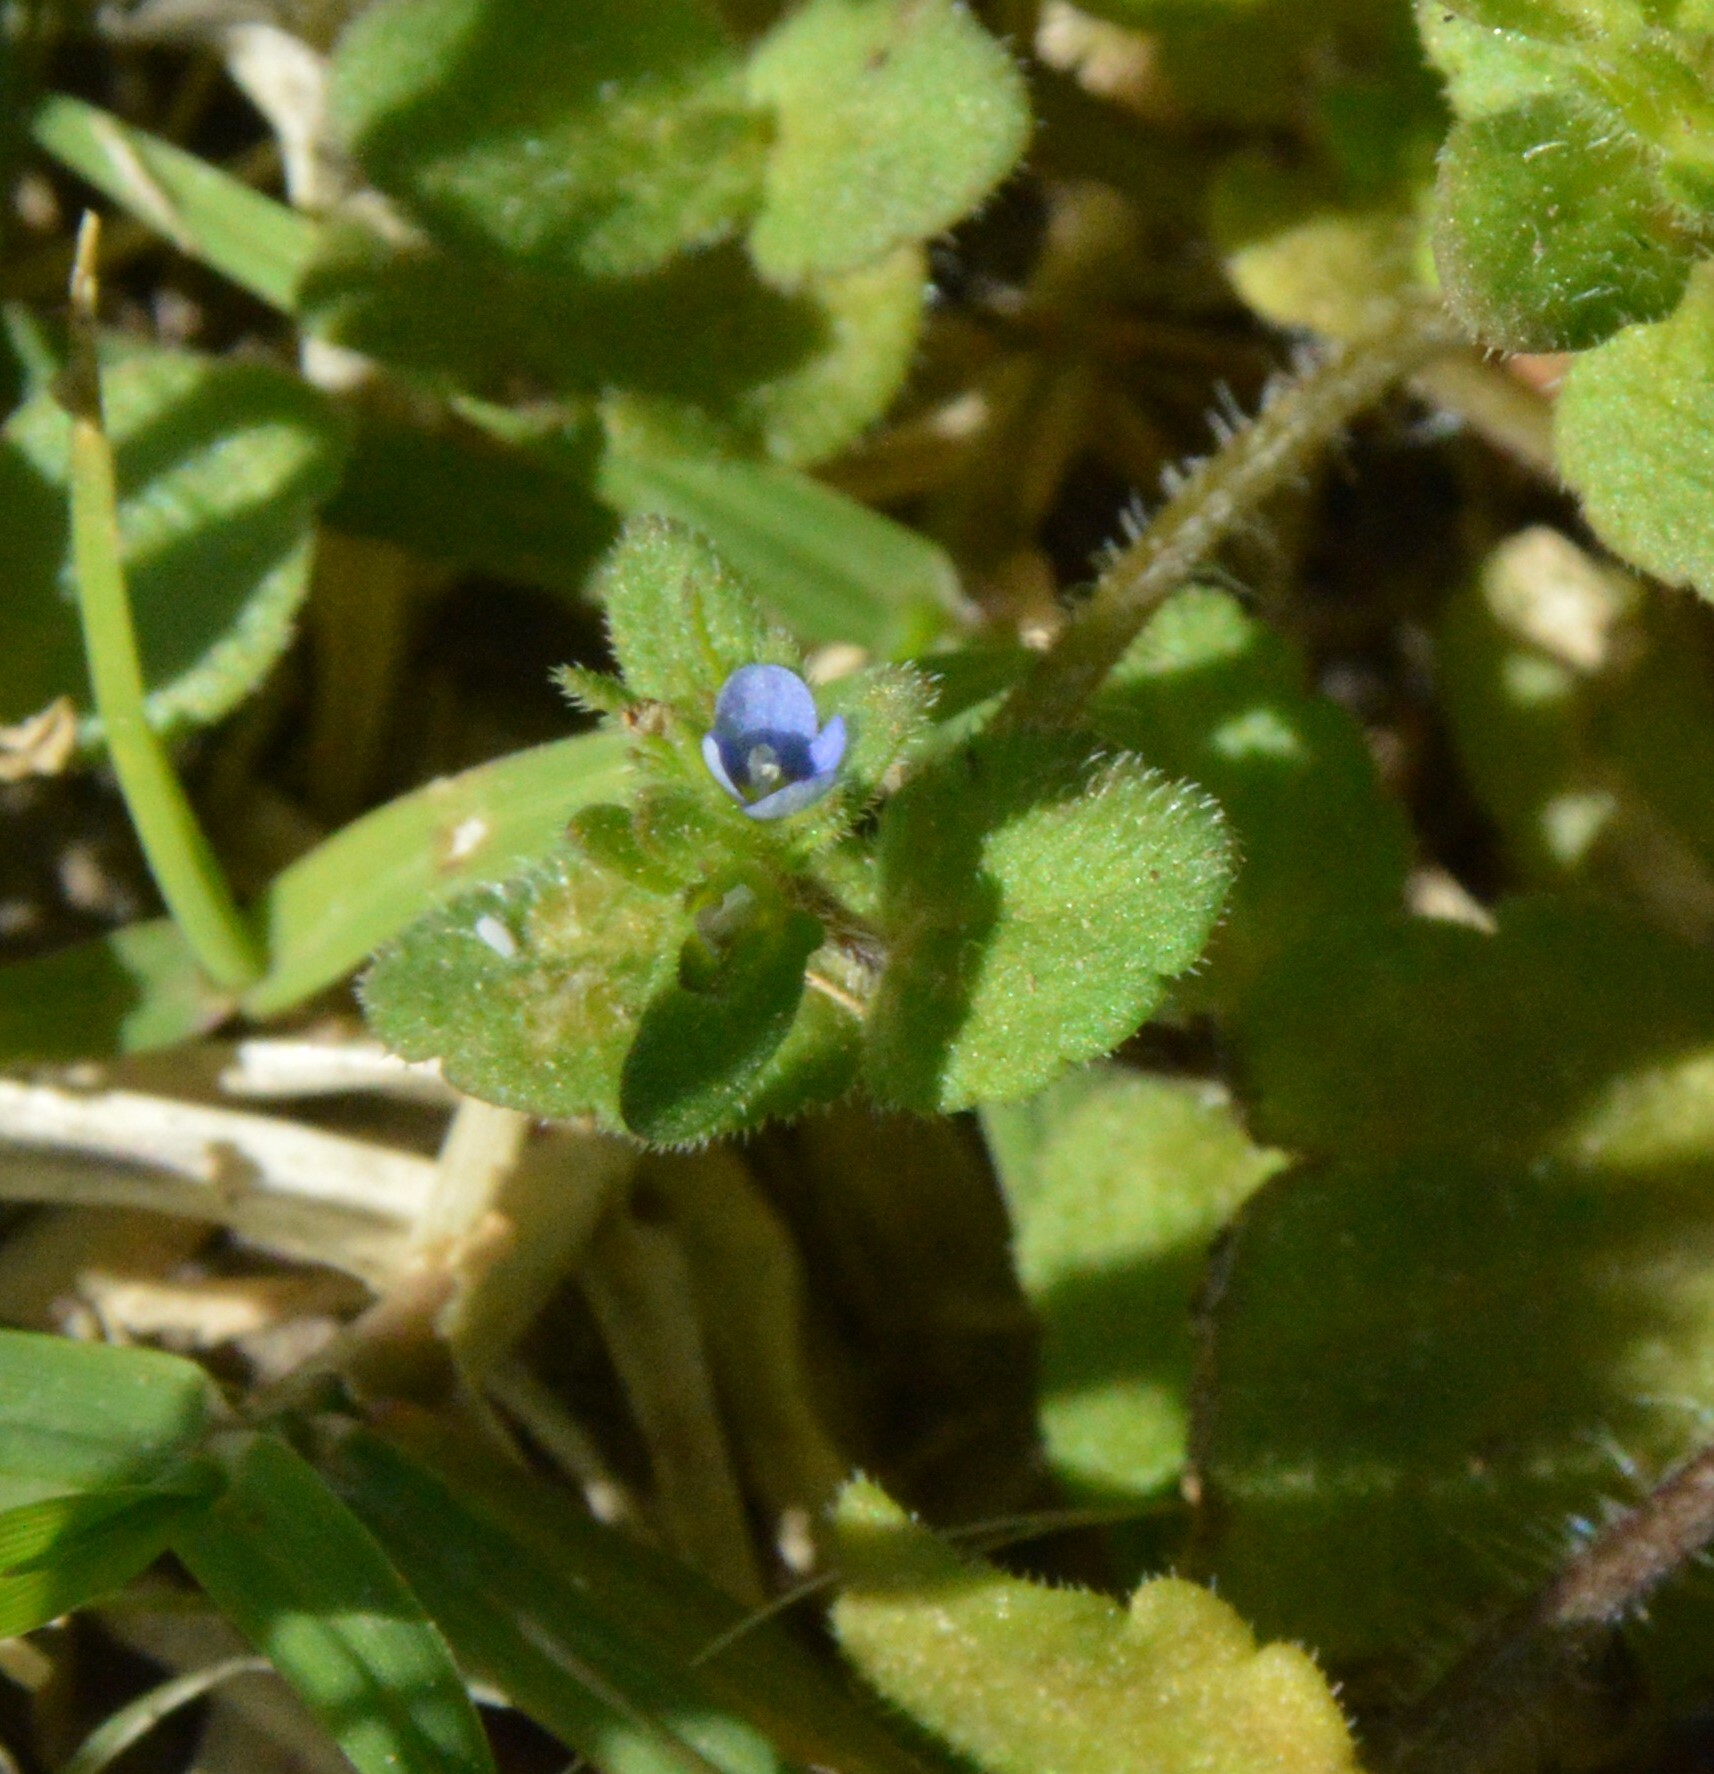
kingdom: Plantae
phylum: Tracheophyta
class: Magnoliopsida
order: Lamiales
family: Plantaginaceae
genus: Veronica
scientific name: Veronica arvensis
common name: Corn speedwell
